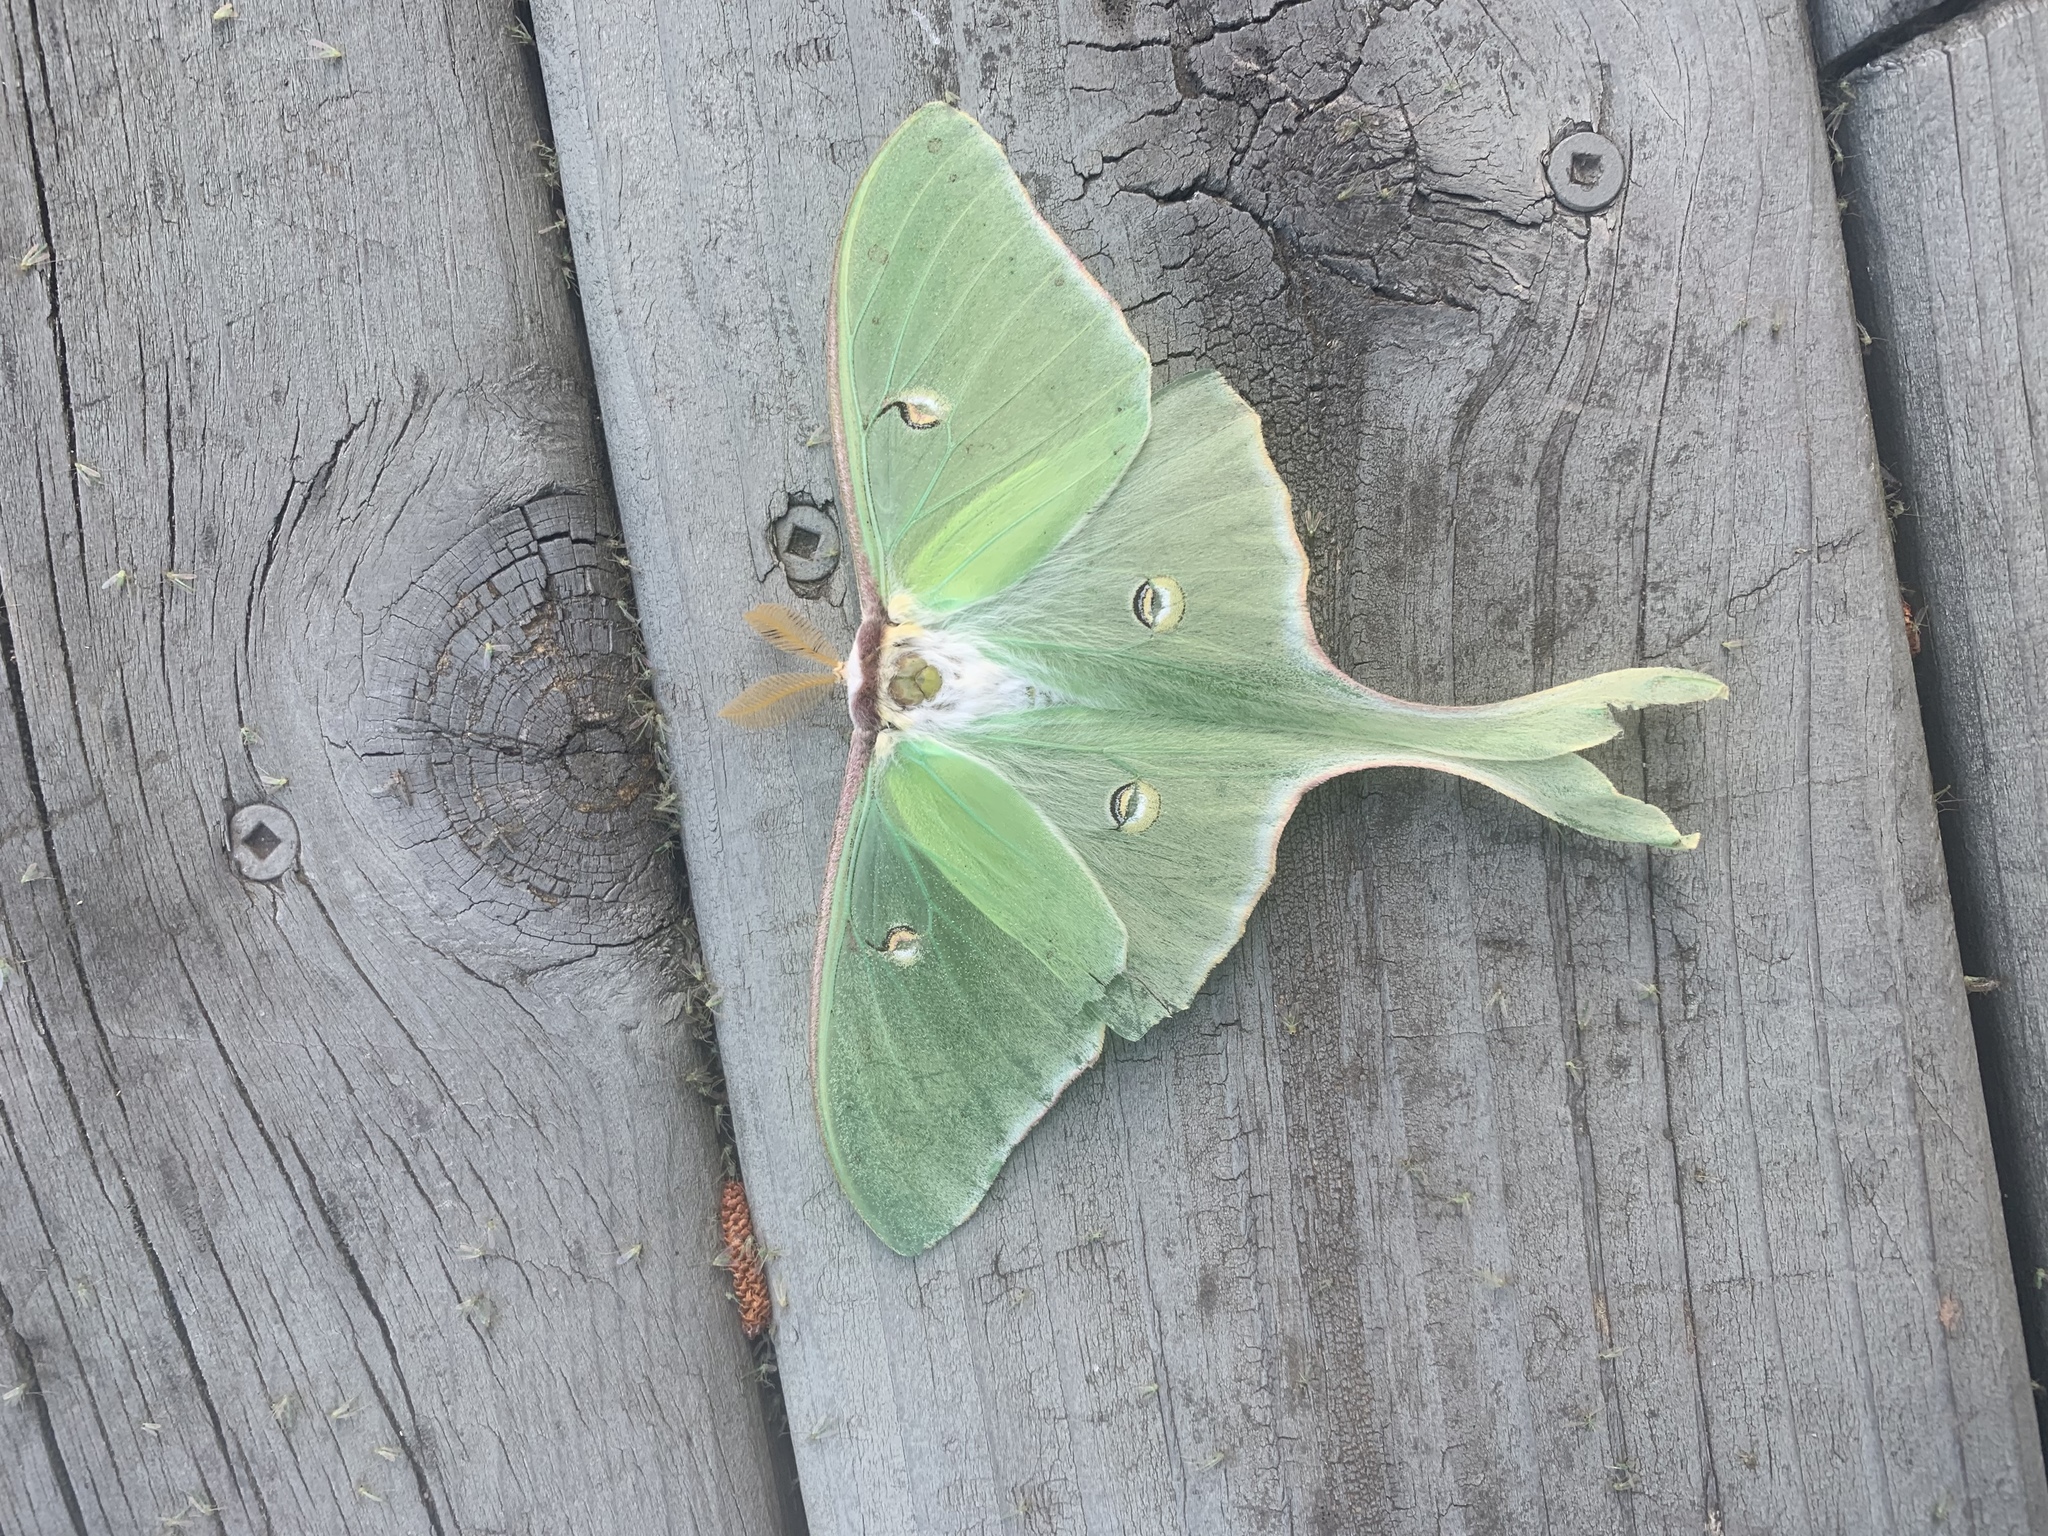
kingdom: Animalia
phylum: Arthropoda
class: Insecta
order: Lepidoptera
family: Saturniidae
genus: Actias
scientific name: Actias luna
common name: Luna moth
